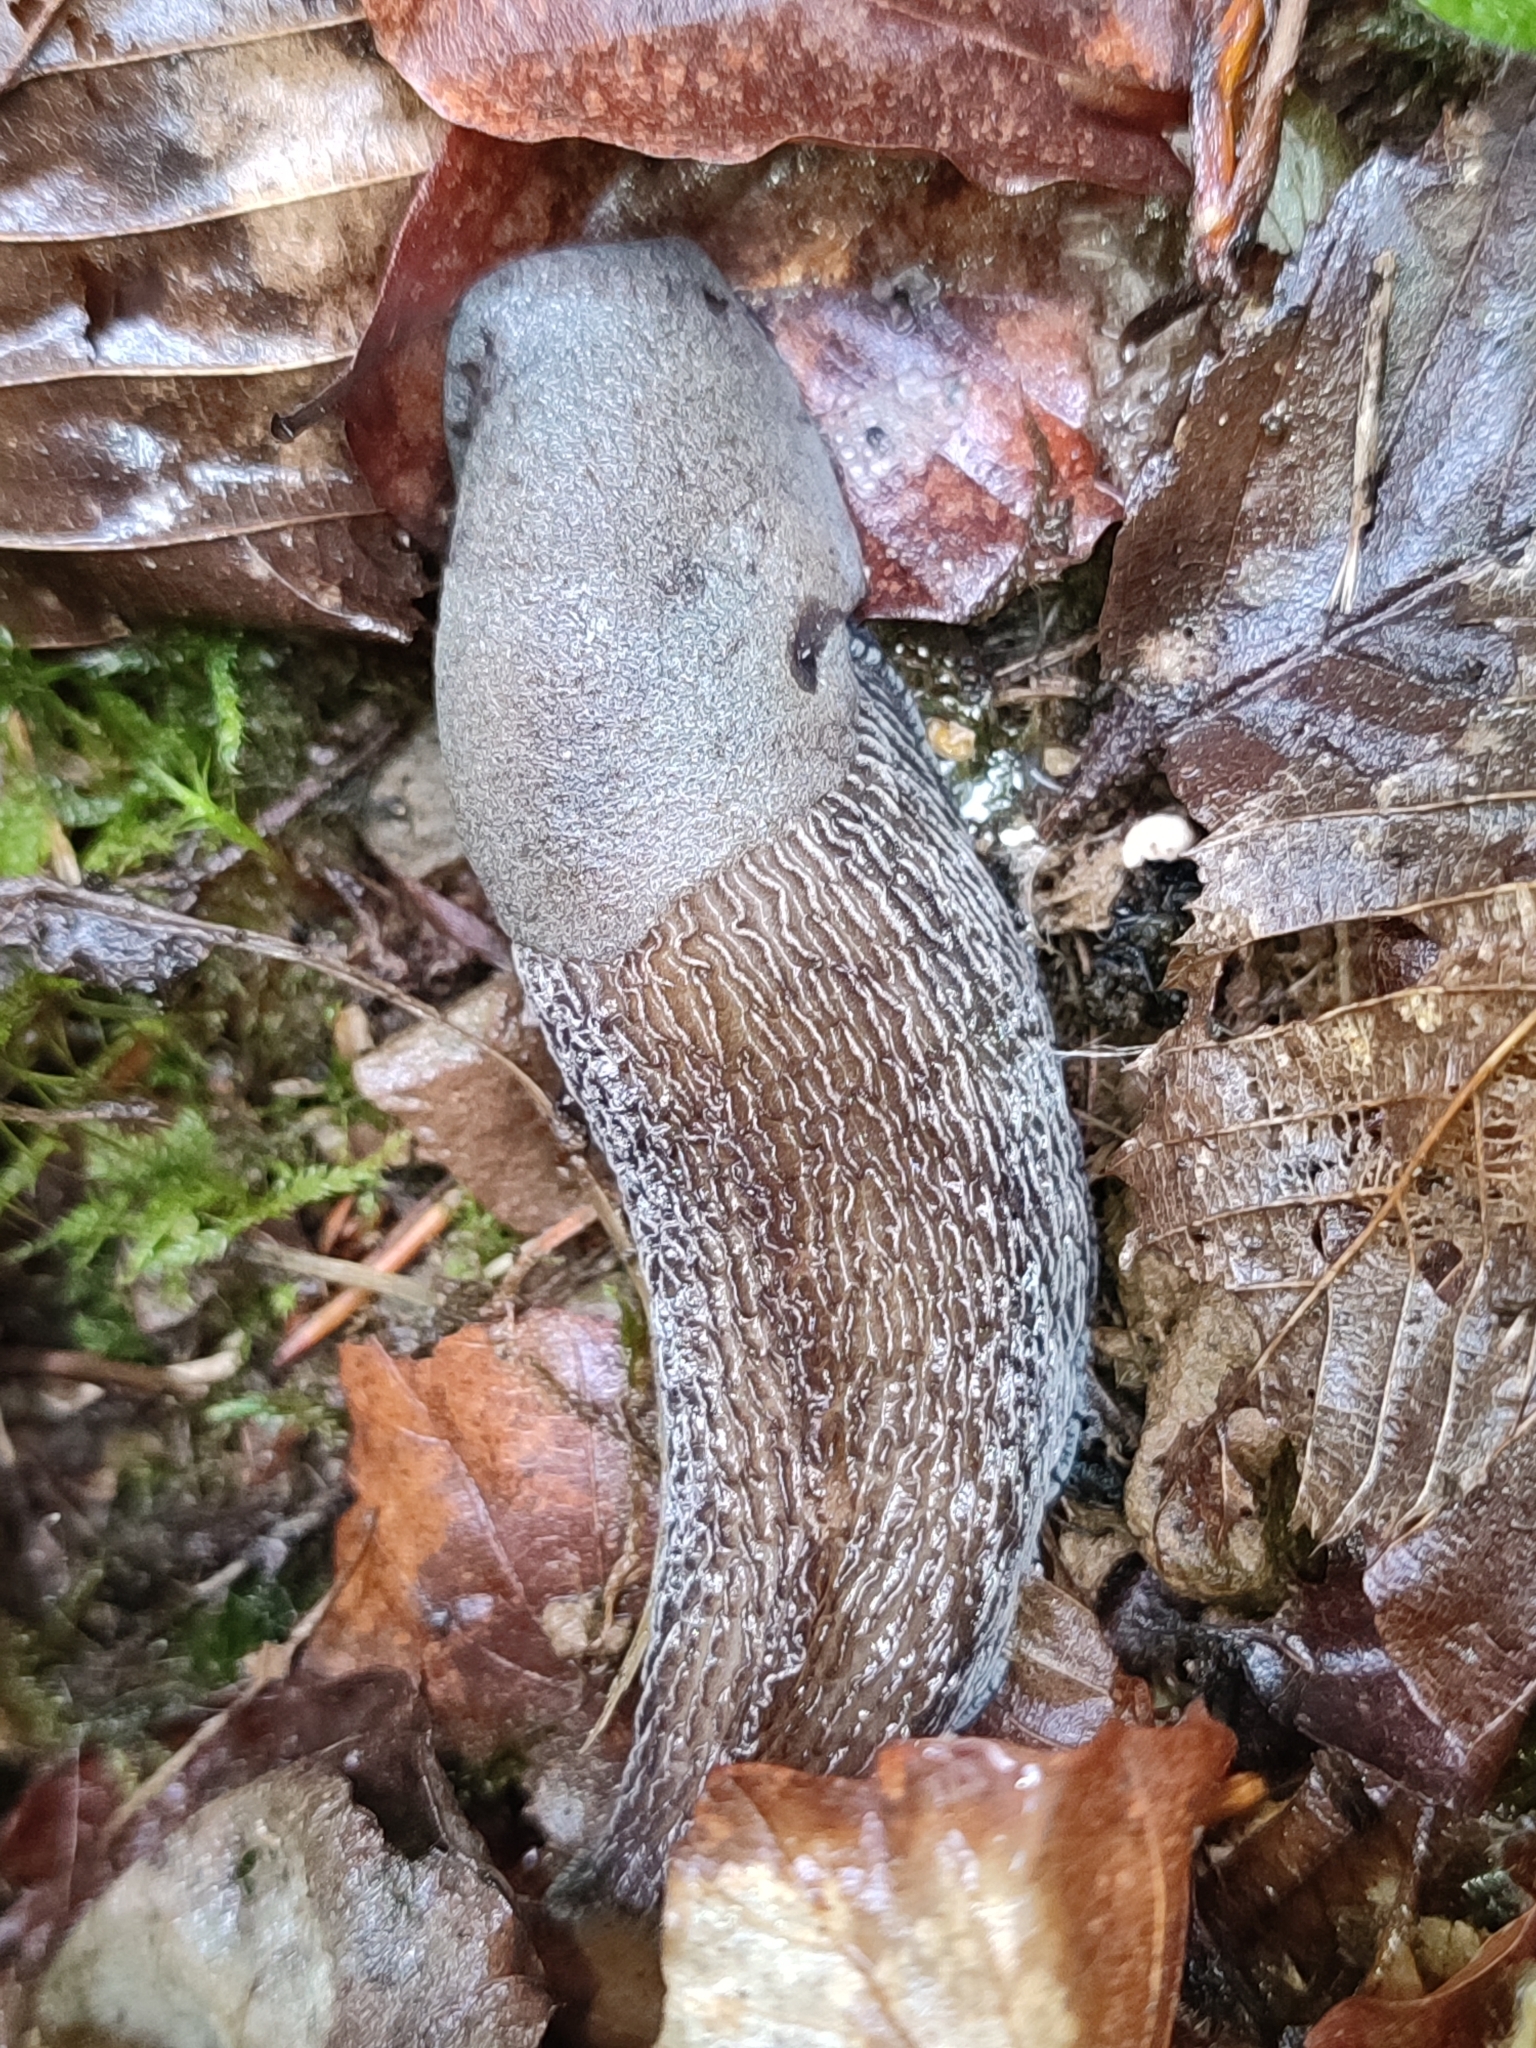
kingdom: Animalia
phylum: Mollusca
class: Gastropoda
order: Stylommatophora
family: Limacidae
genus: Bielzia
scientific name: Bielzia coerulans
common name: Carpathian blue slug
